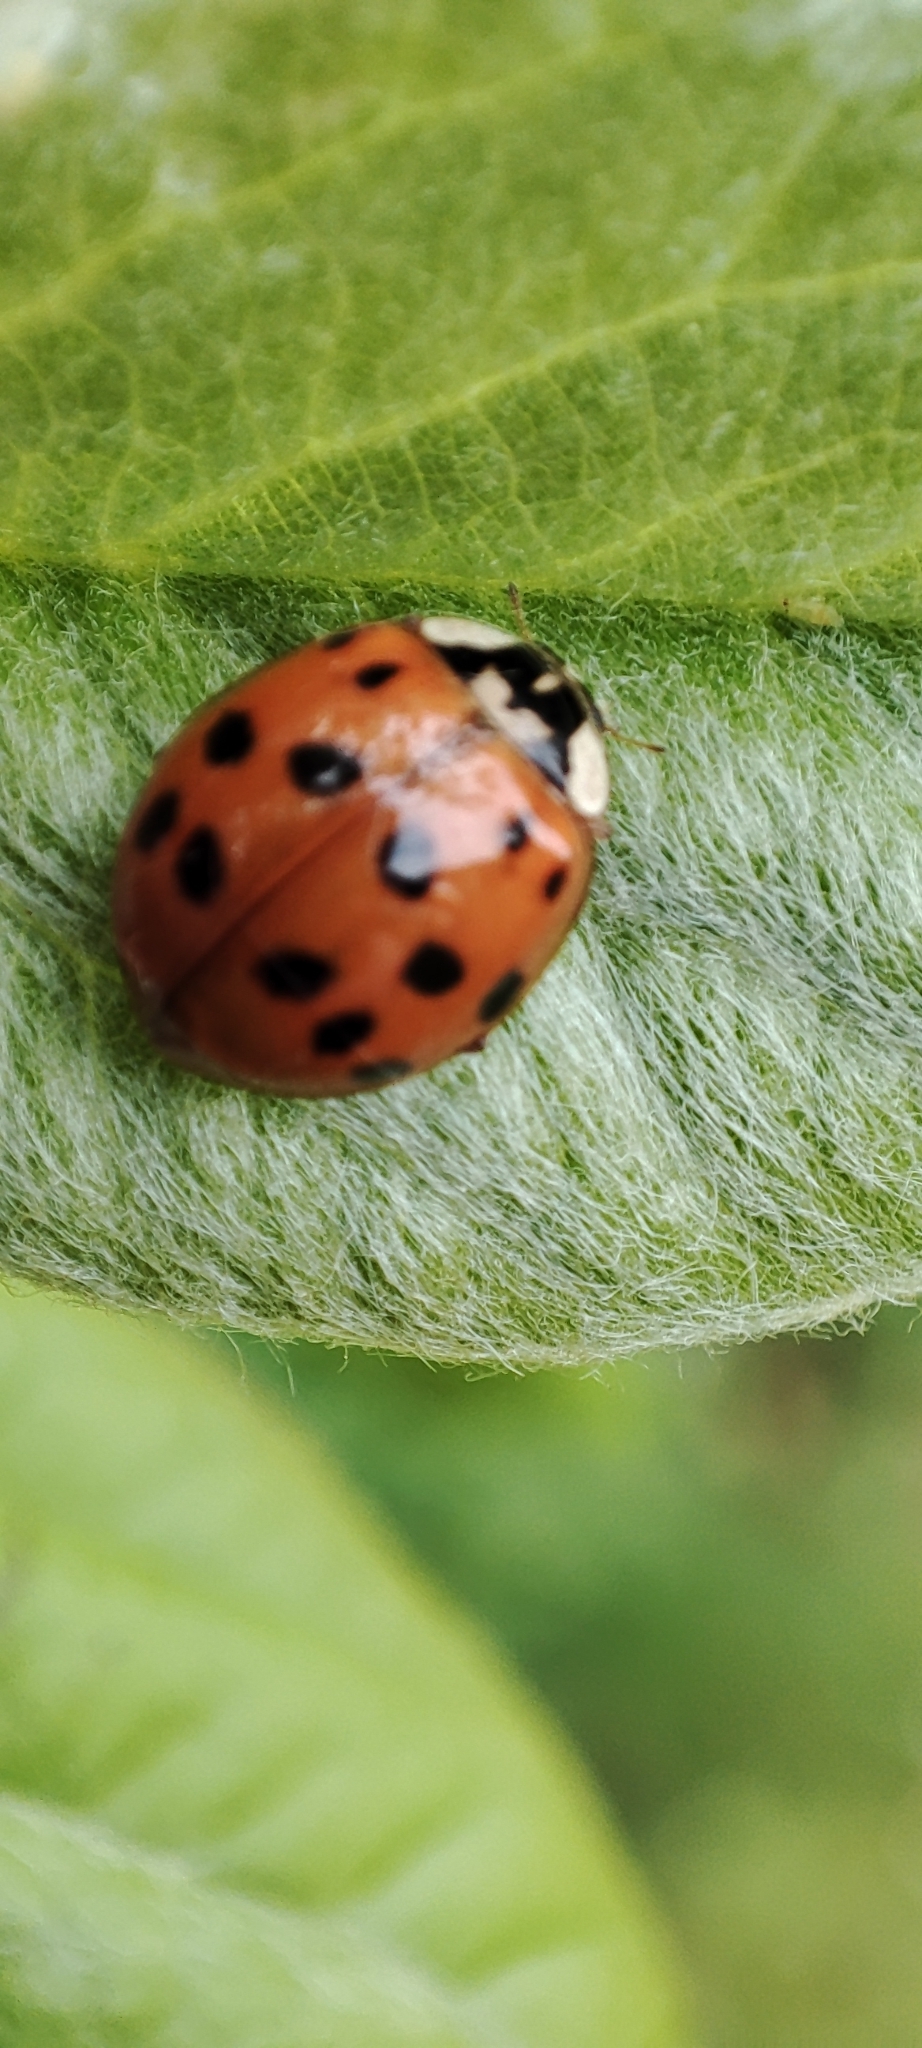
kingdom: Animalia
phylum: Arthropoda
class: Insecta
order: Coleoptera
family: Coccinellidae
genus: Harmonia
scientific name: Harmonia axyridis
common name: Harlequin ladybird
